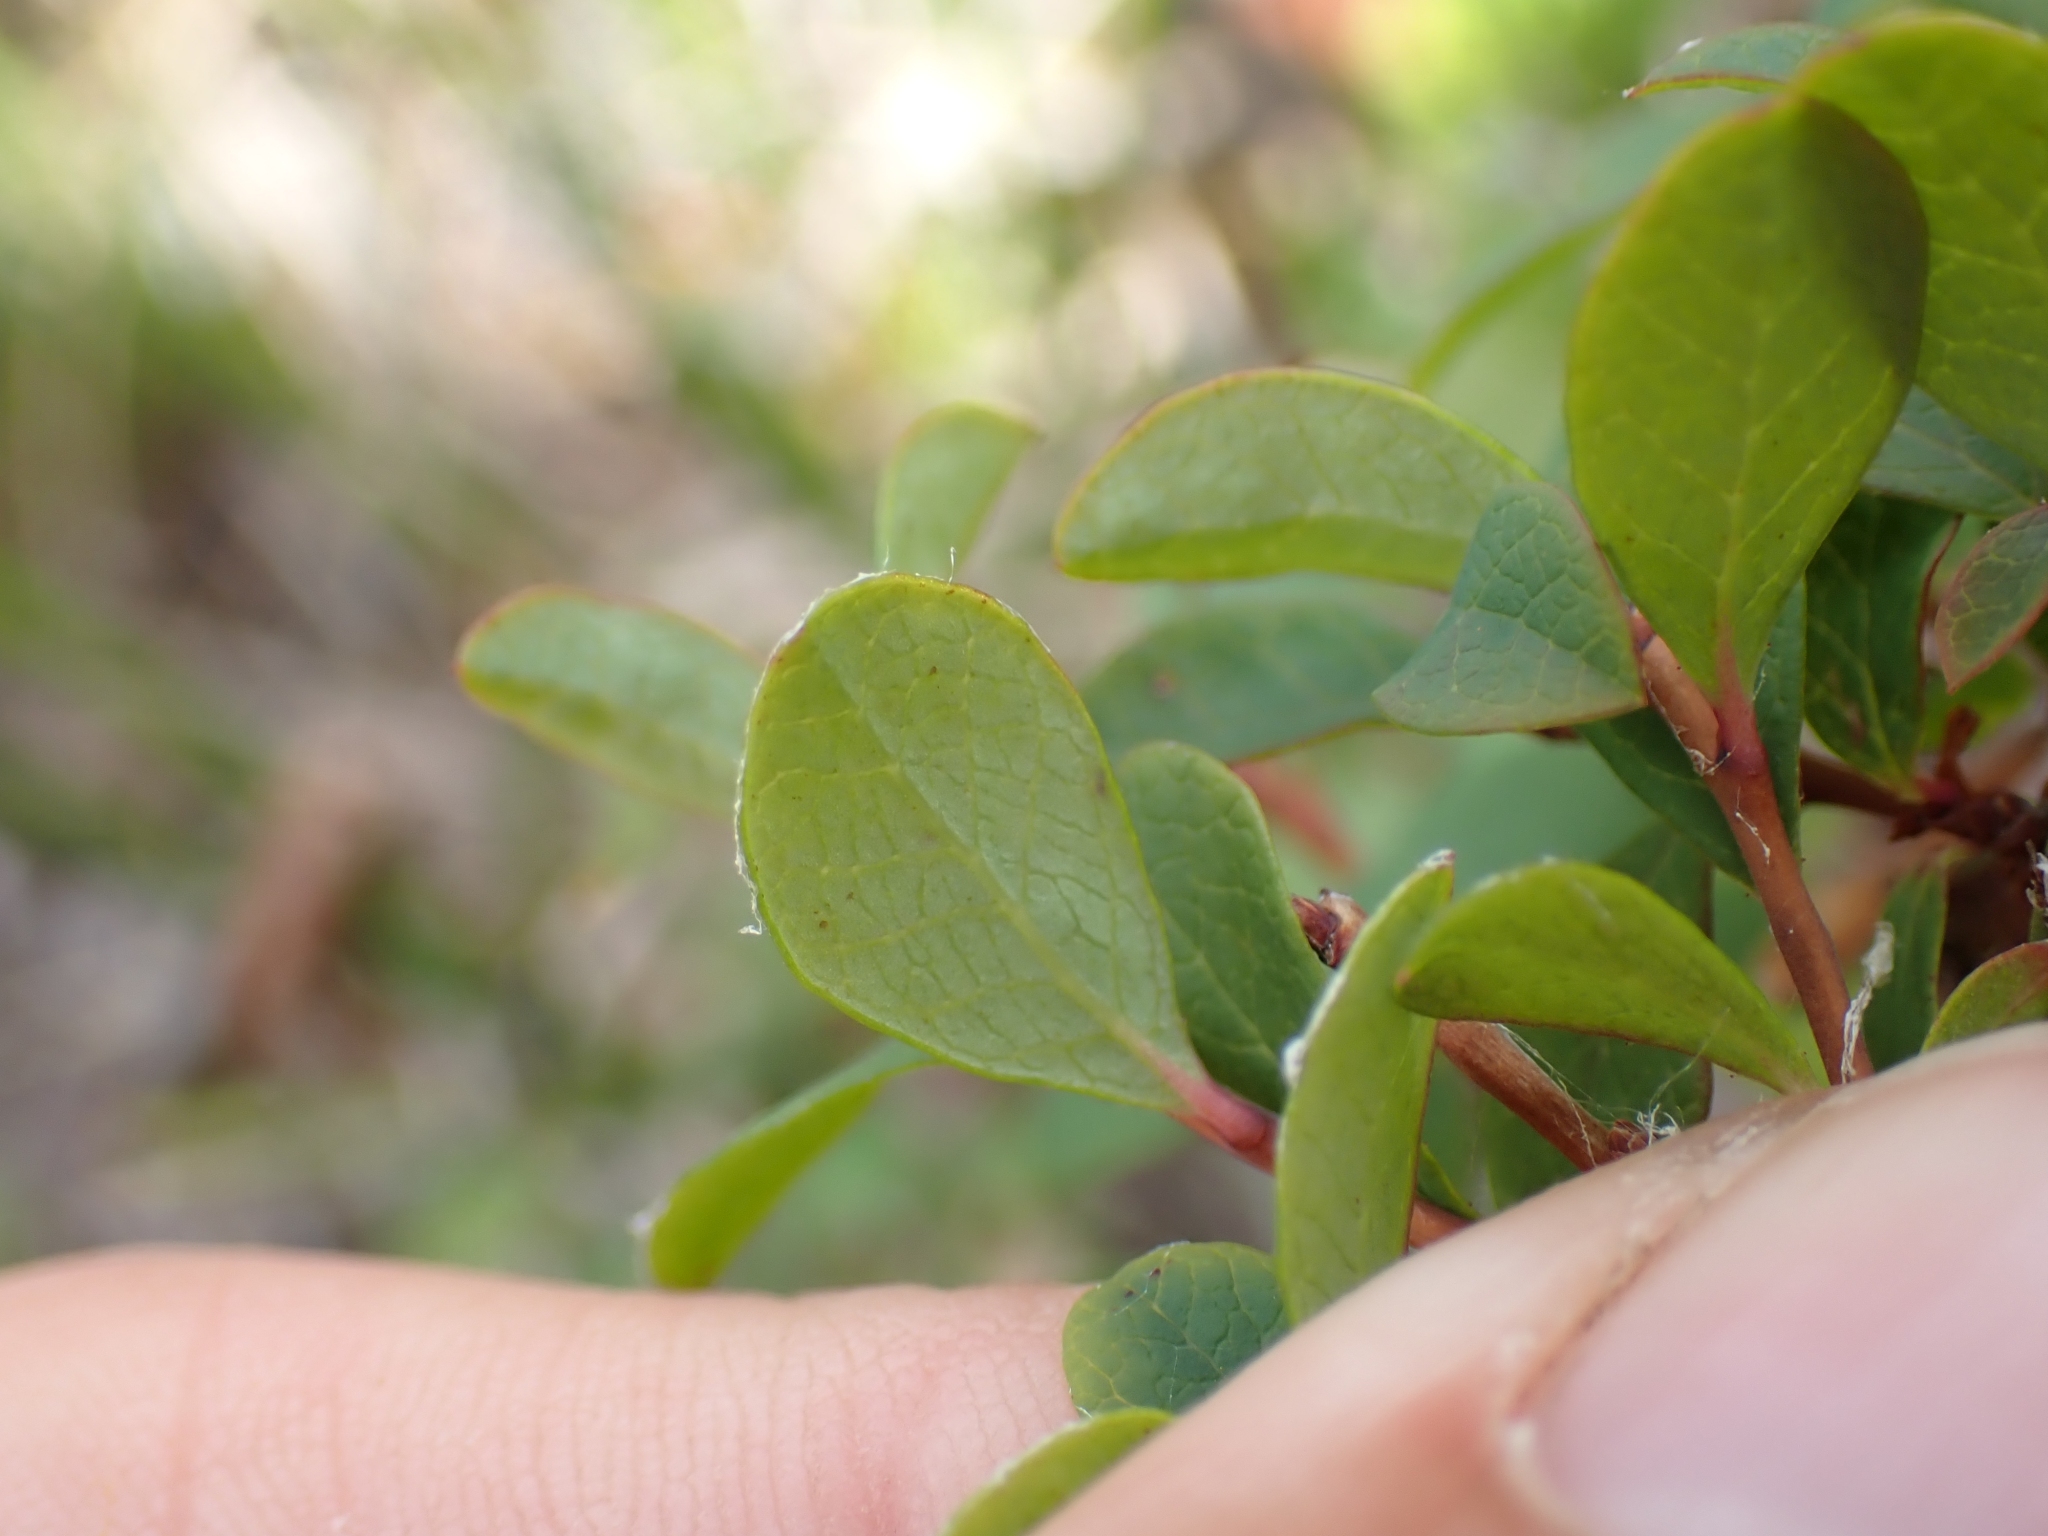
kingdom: Plantae
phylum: Tracheophyta
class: Magnoliopsida
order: Ericales
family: Ericaceae
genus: Vaccinium
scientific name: Vaccinium uliginosum
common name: Bog bilberry
